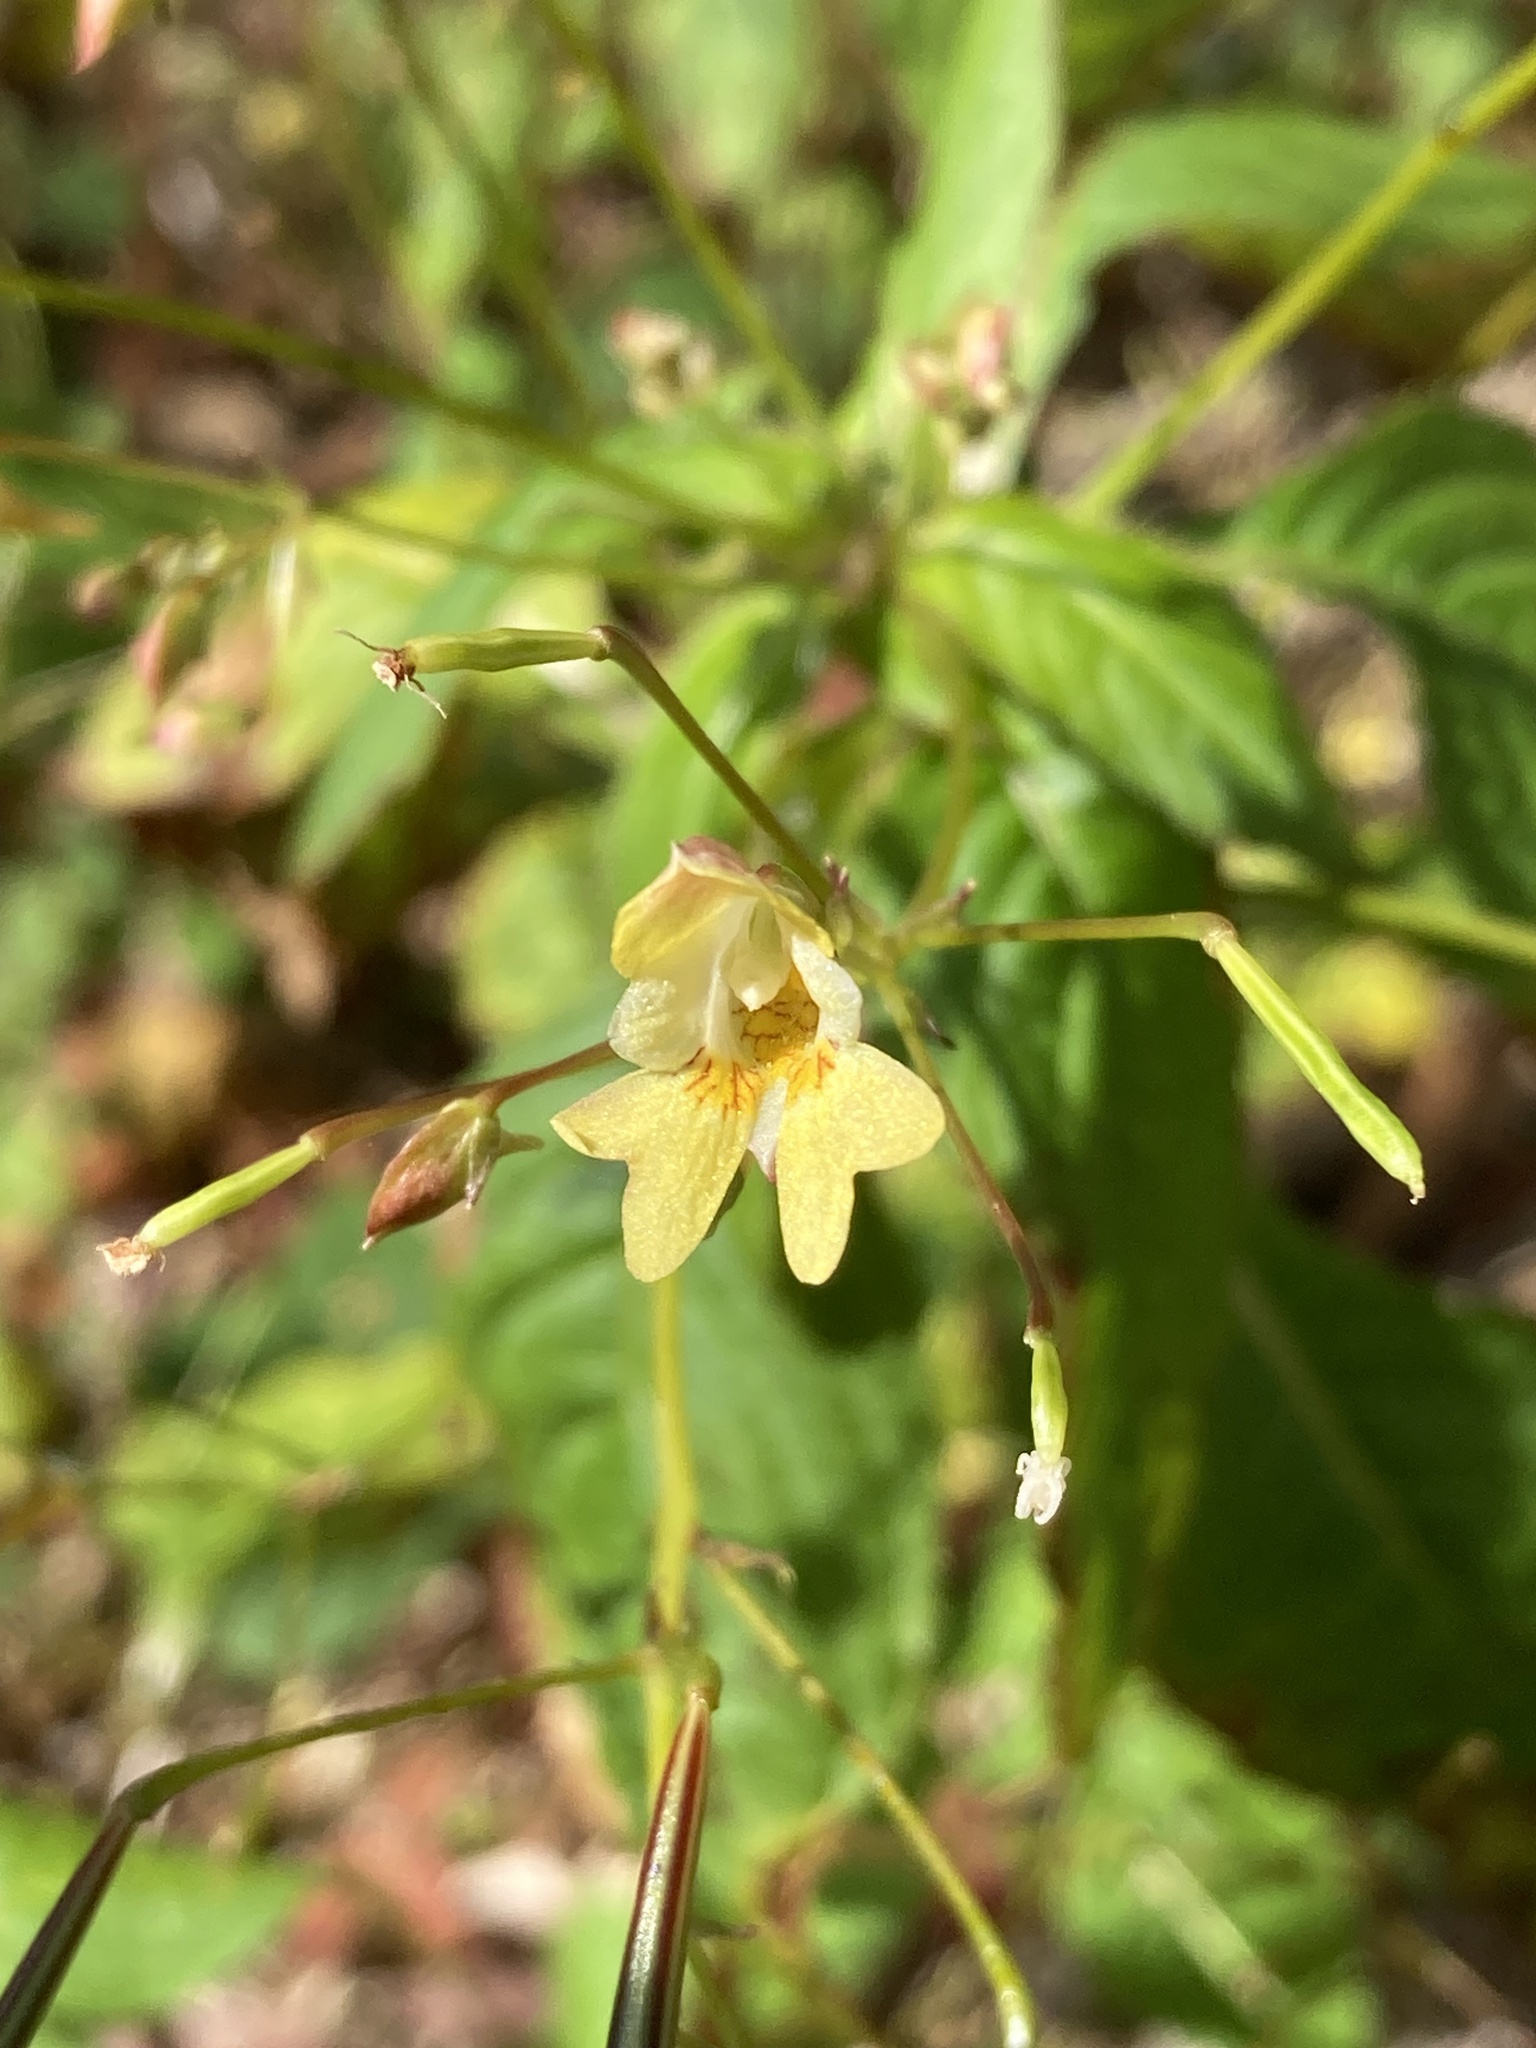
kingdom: Plantae
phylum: Tracheophyta
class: Magnoliopsida
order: Ericales
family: Balsaminaceae
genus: Impatiens
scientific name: Impatiens parviflora
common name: Small balsam
